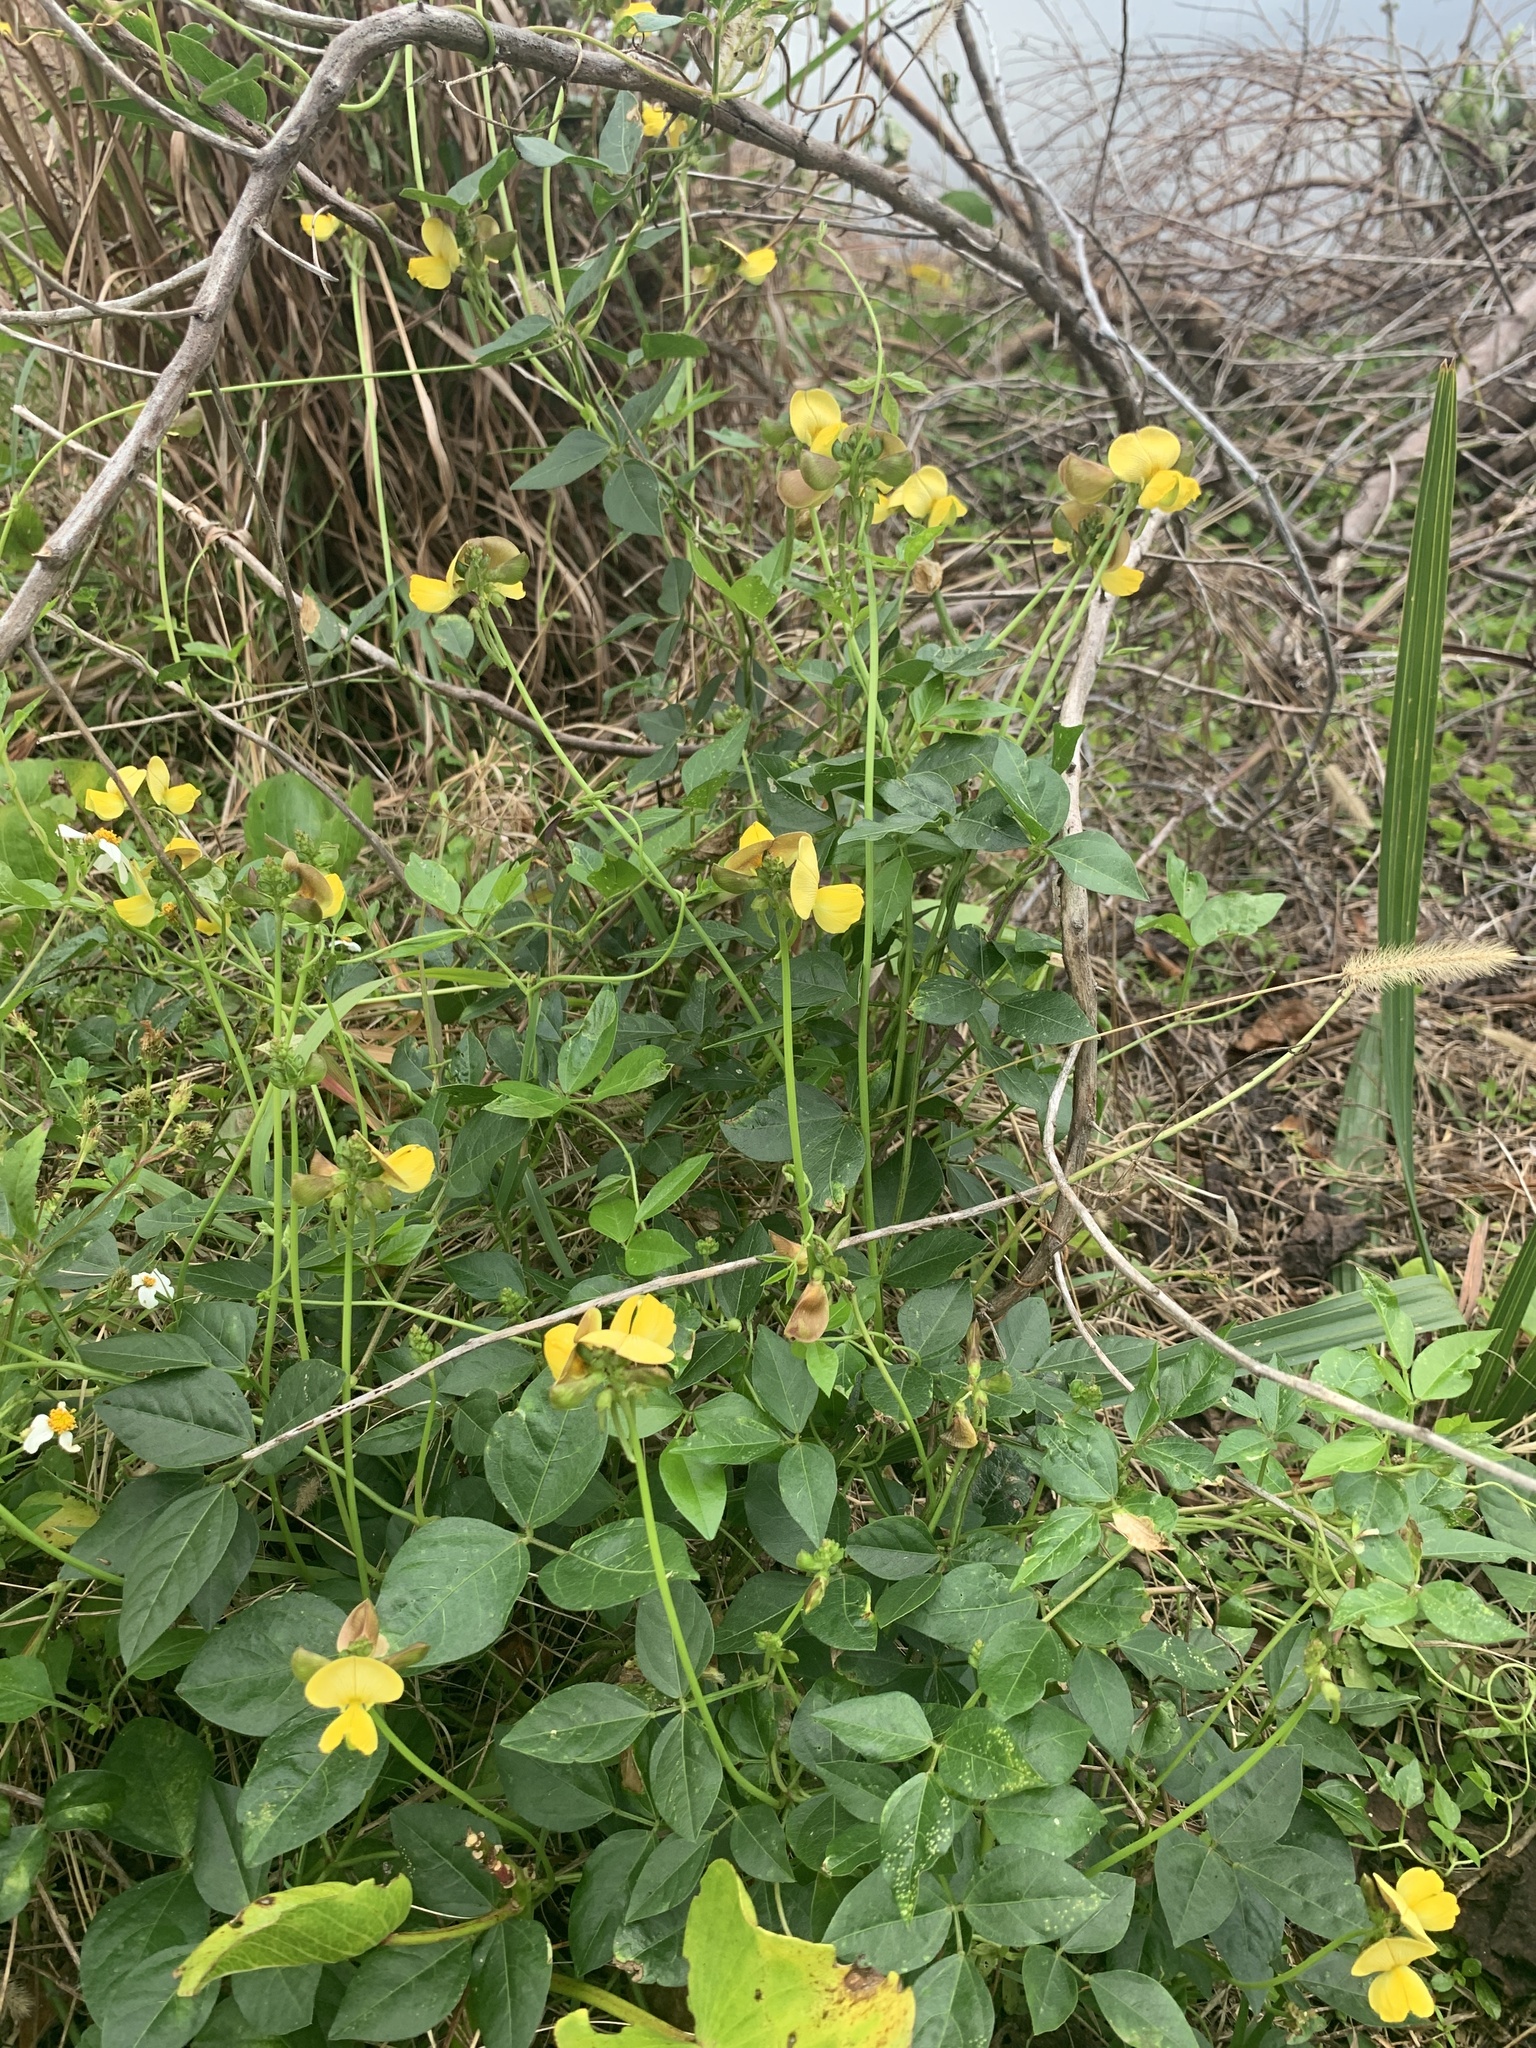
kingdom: Plantae
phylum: Tracheophyta
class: Magnoliopsida
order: Fabales
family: Fabaceae
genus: Vigna
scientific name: Vigna luteola
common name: Hairypod cowpea
